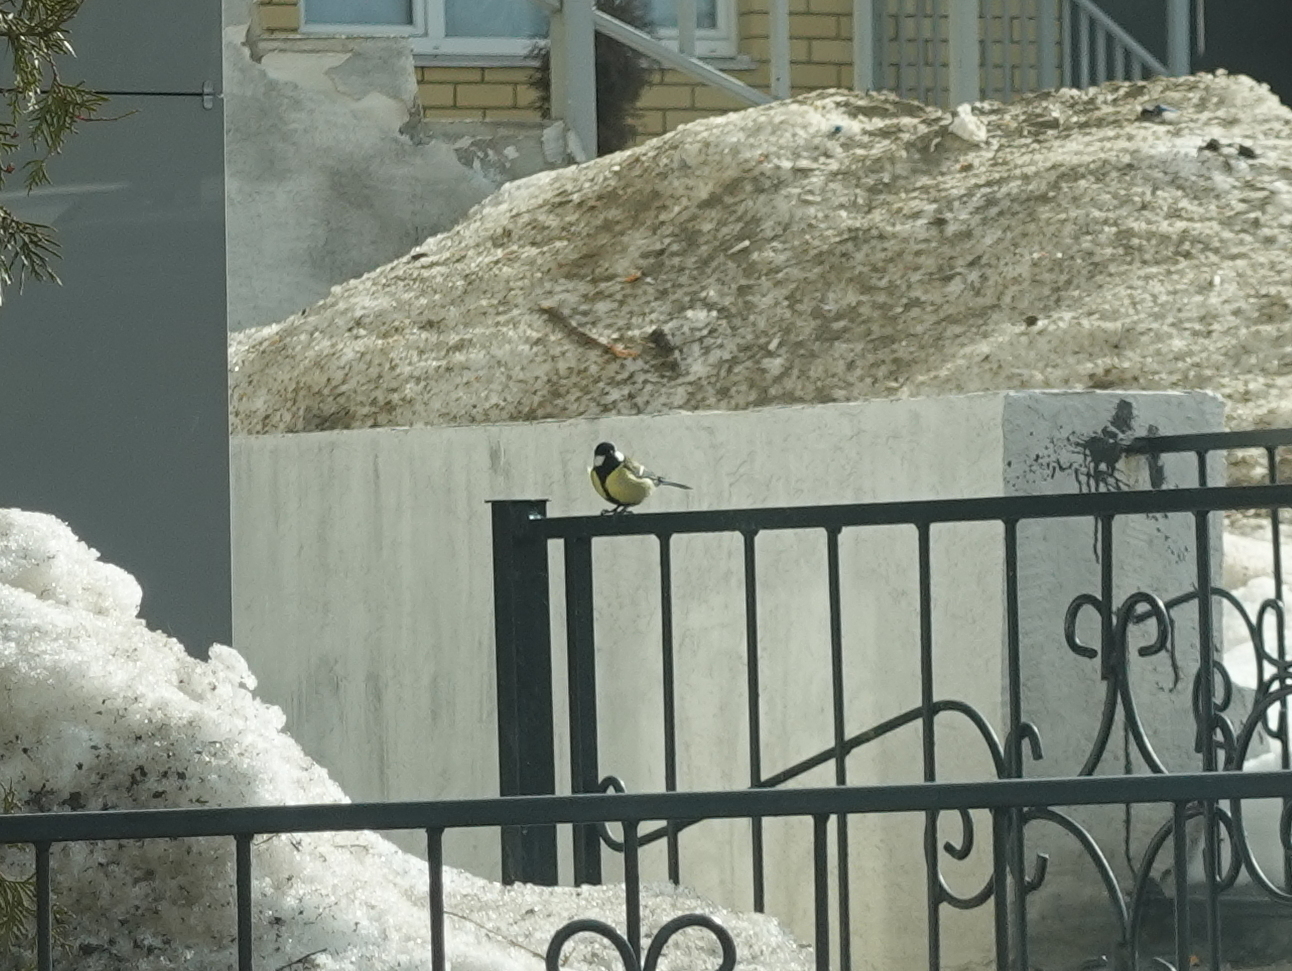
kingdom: Animalia
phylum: Chordata
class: Aves
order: Passeriformes
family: Paridae
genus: Parus
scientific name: Parus major
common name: Great tit
